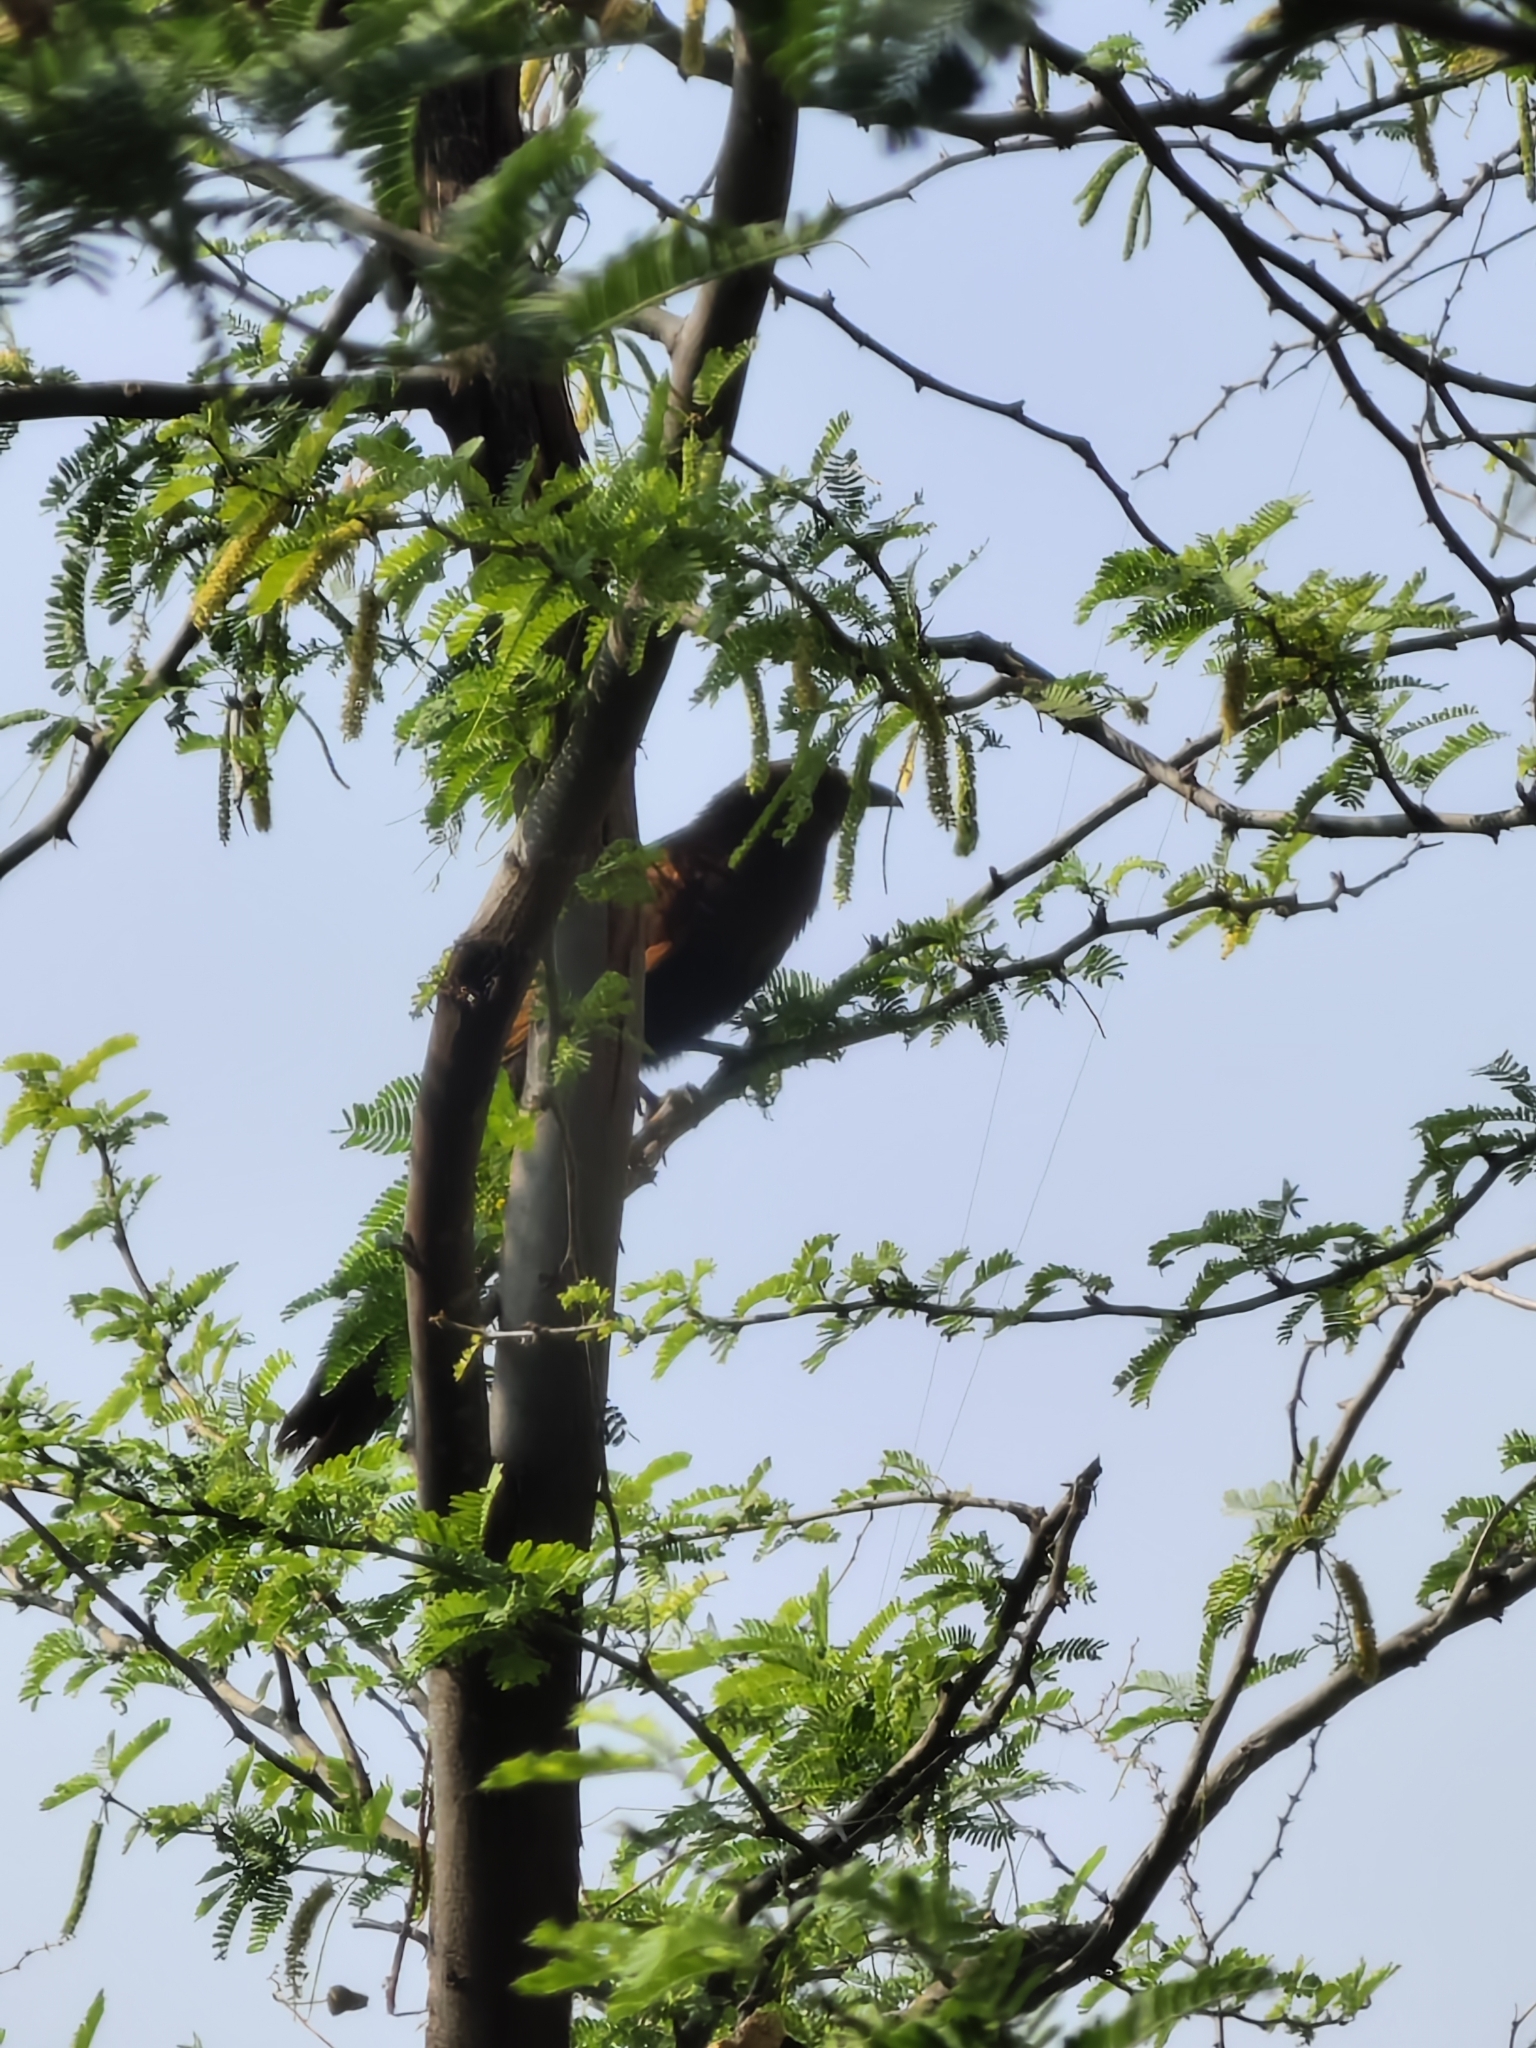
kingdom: Animalia
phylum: Chordata
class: Aves
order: Cuculiformes
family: Cuculidae
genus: Centropus
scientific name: Centropus sinensis
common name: Greater coucal
